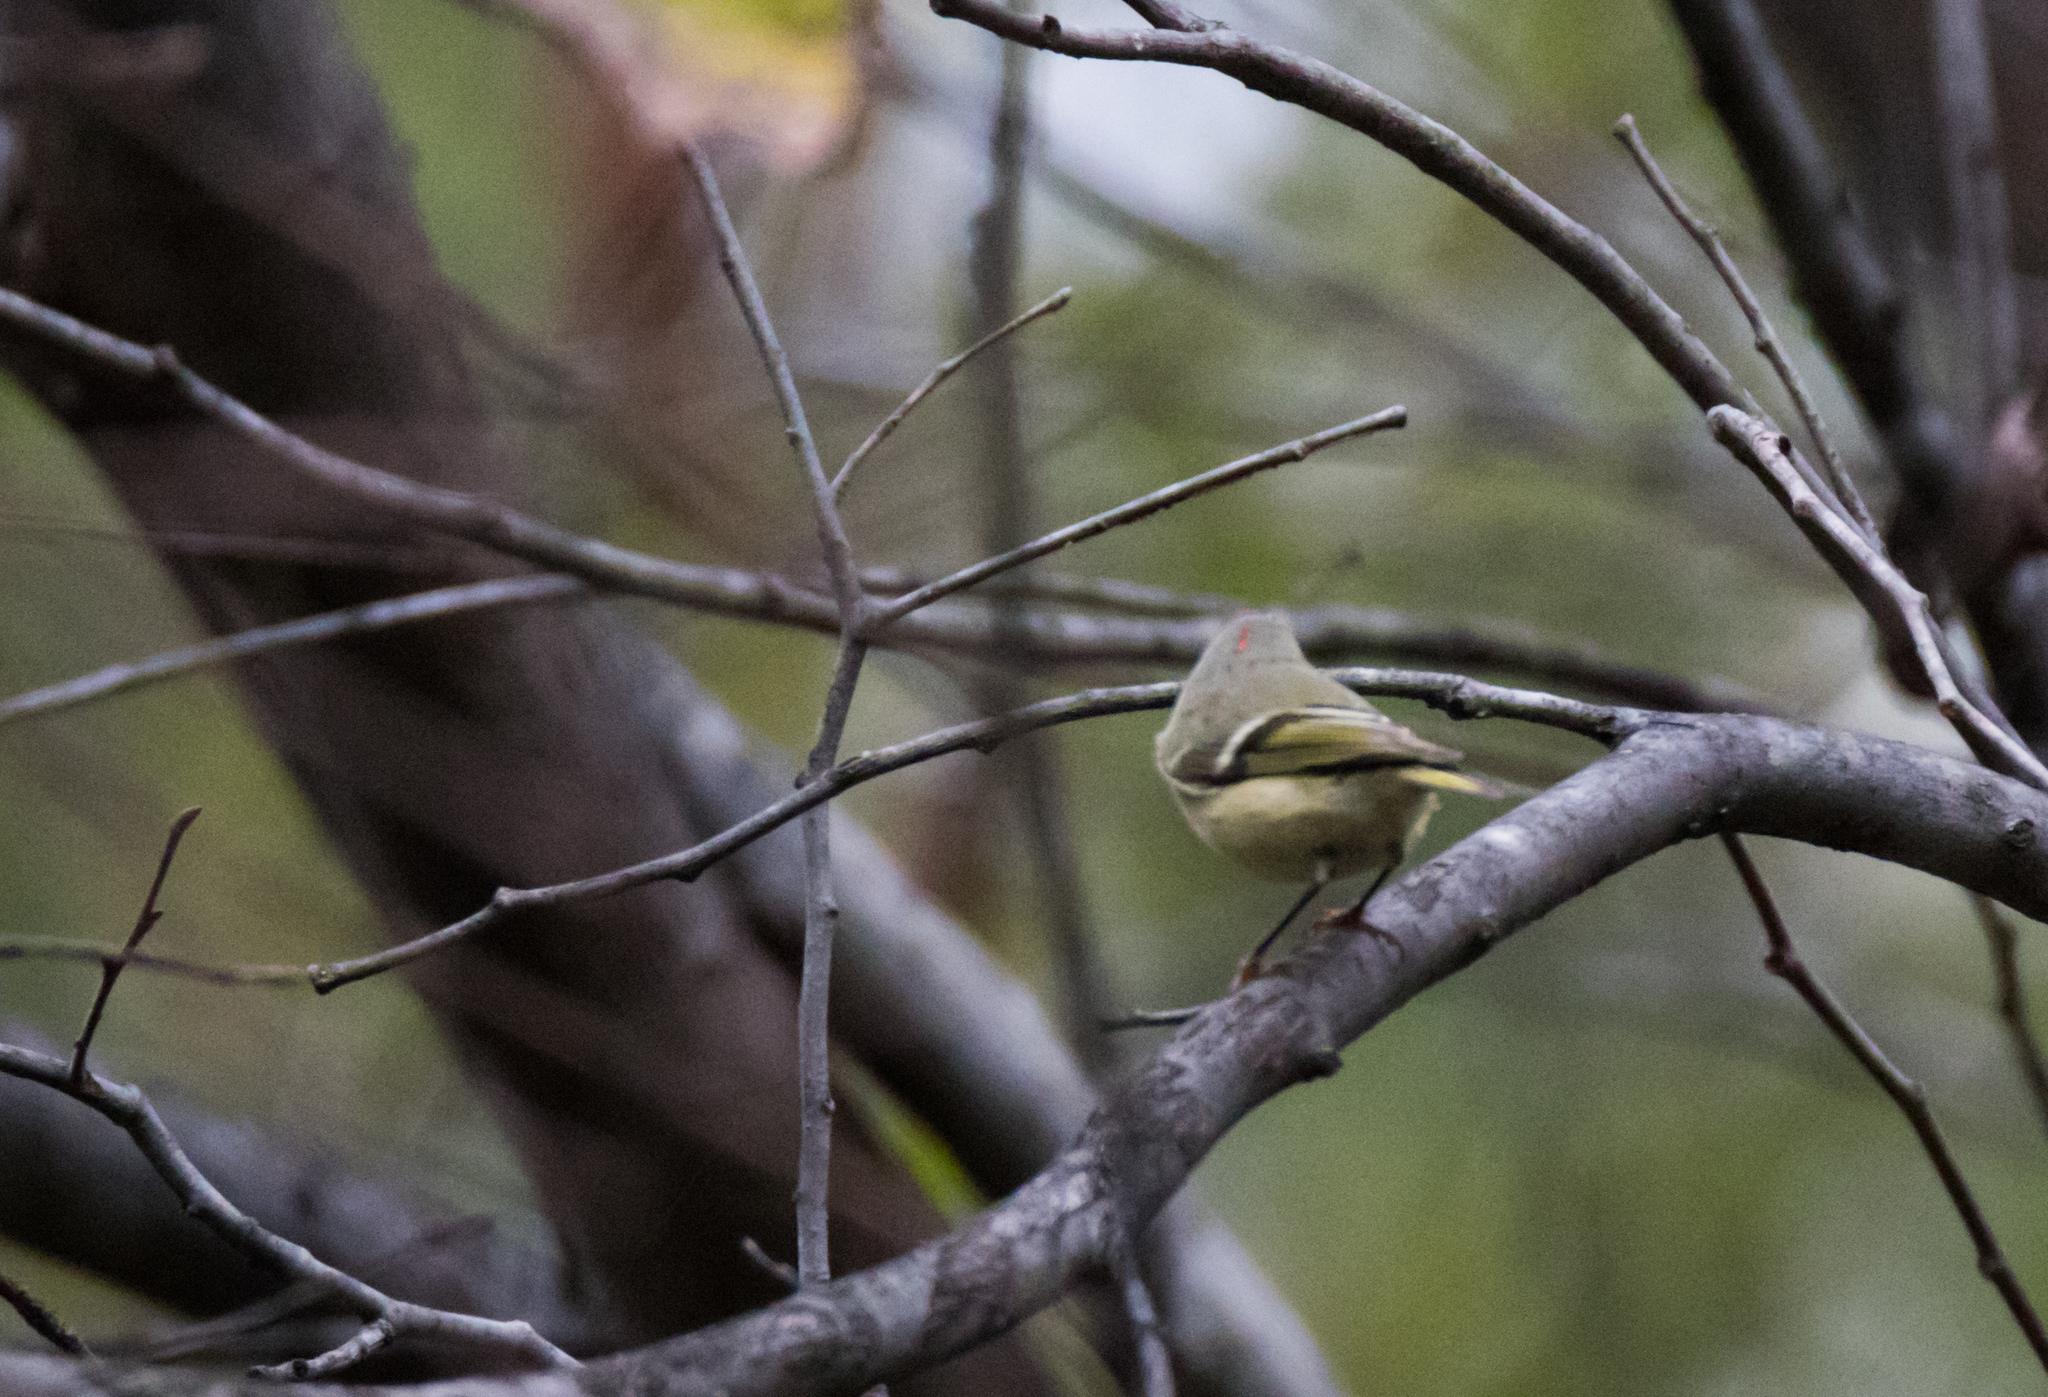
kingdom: Animalia
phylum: Chordata
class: Aves
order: Passeriformes
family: Regulidae
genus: Regulus
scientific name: Regulus calendula
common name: Ruby-crowned kinglet
